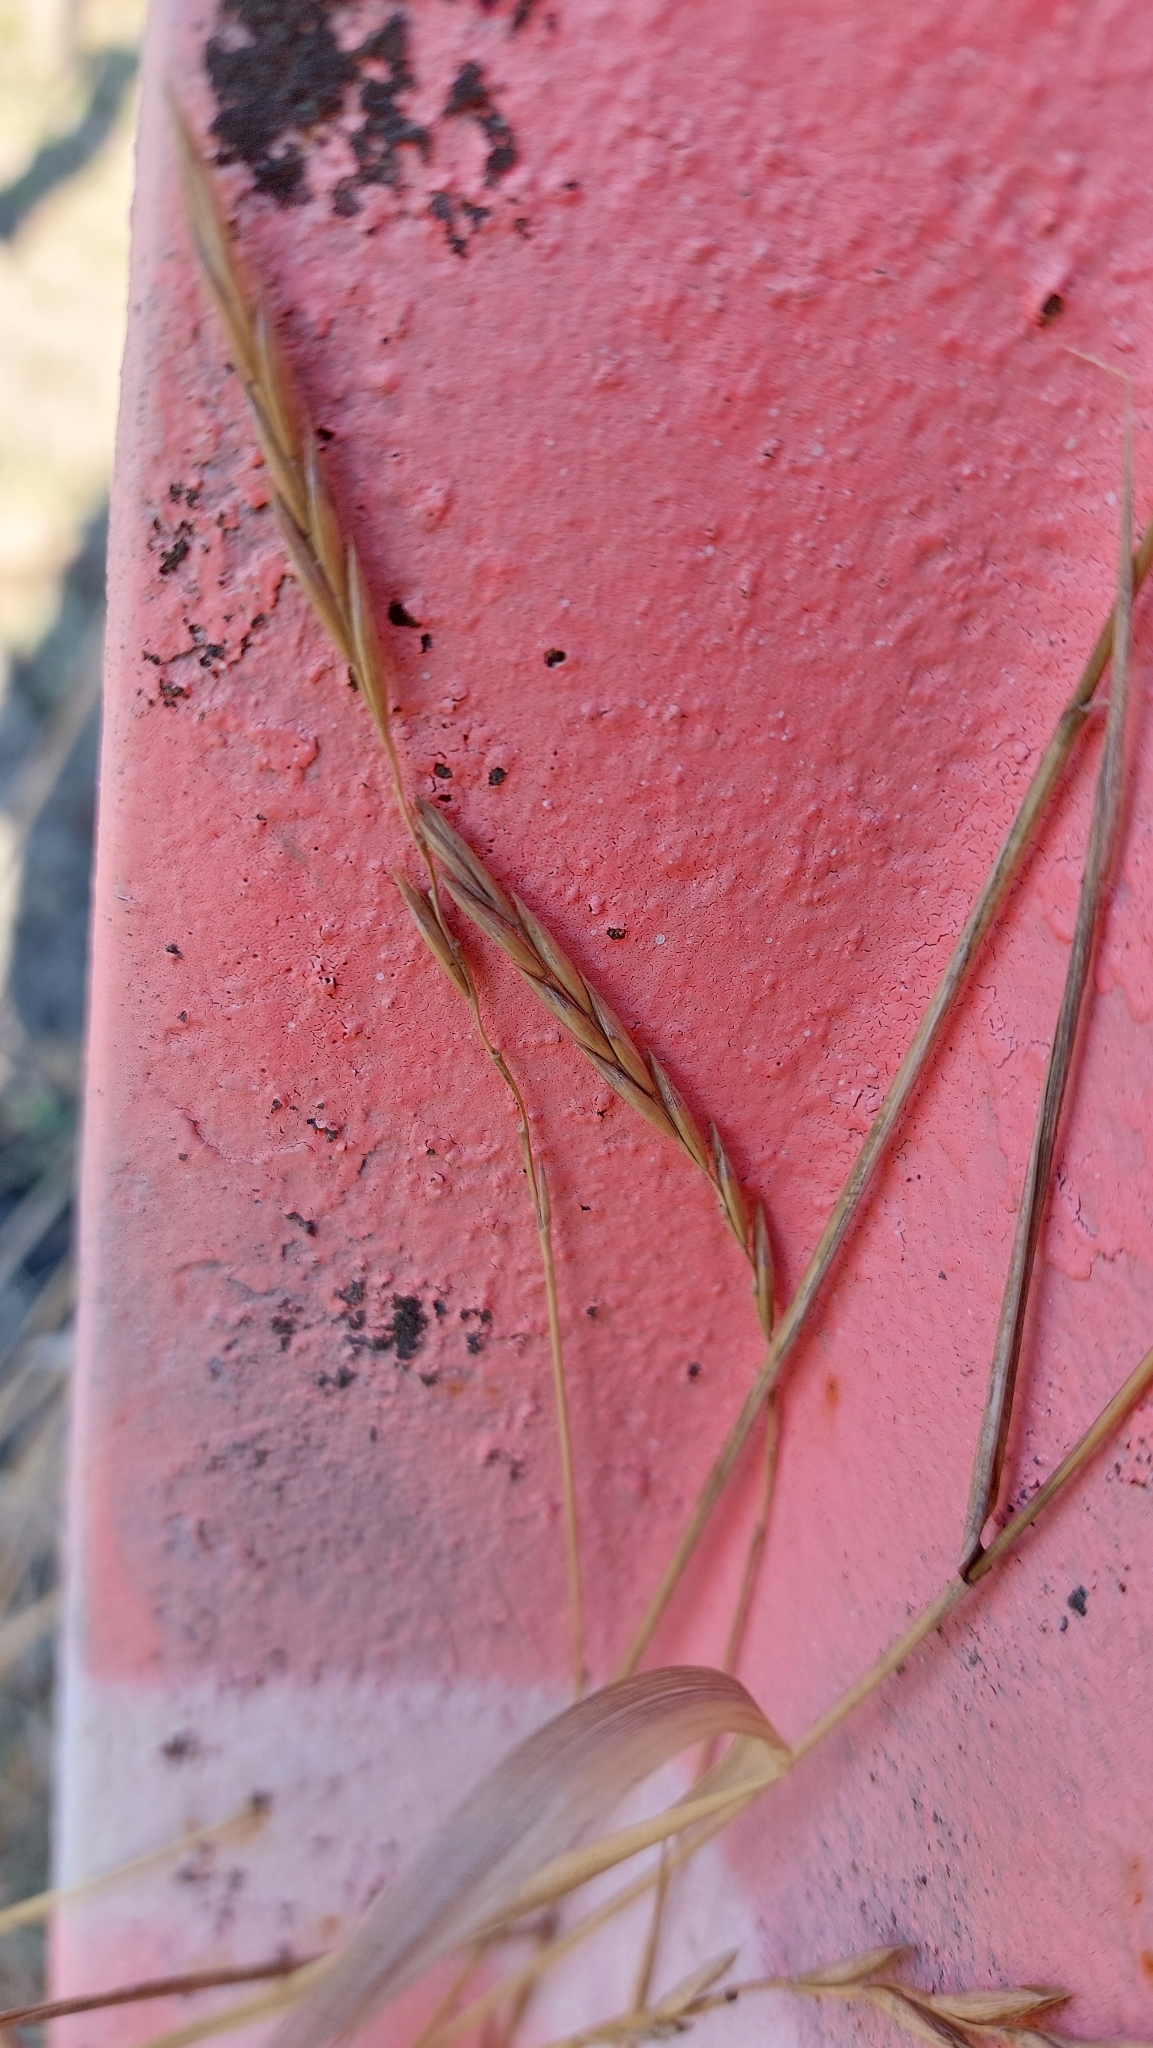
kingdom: Plantae
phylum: Tracheophyta
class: Liliopsida
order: Poales
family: Poaceae
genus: Elymus
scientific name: Elymus repens
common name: Quackgrass
